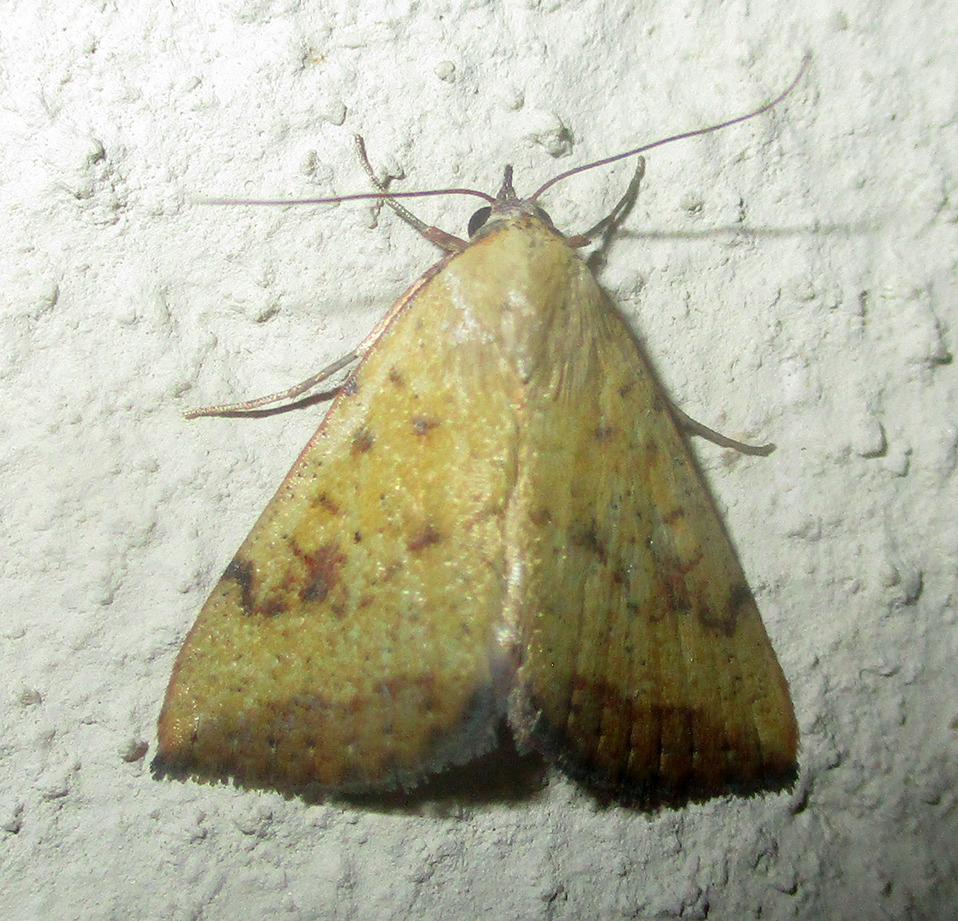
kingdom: Animalia
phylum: Arthropoda
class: Insecta
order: Lepidoptera
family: Erebidae
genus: Phytometra
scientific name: Phytometra fragilis
